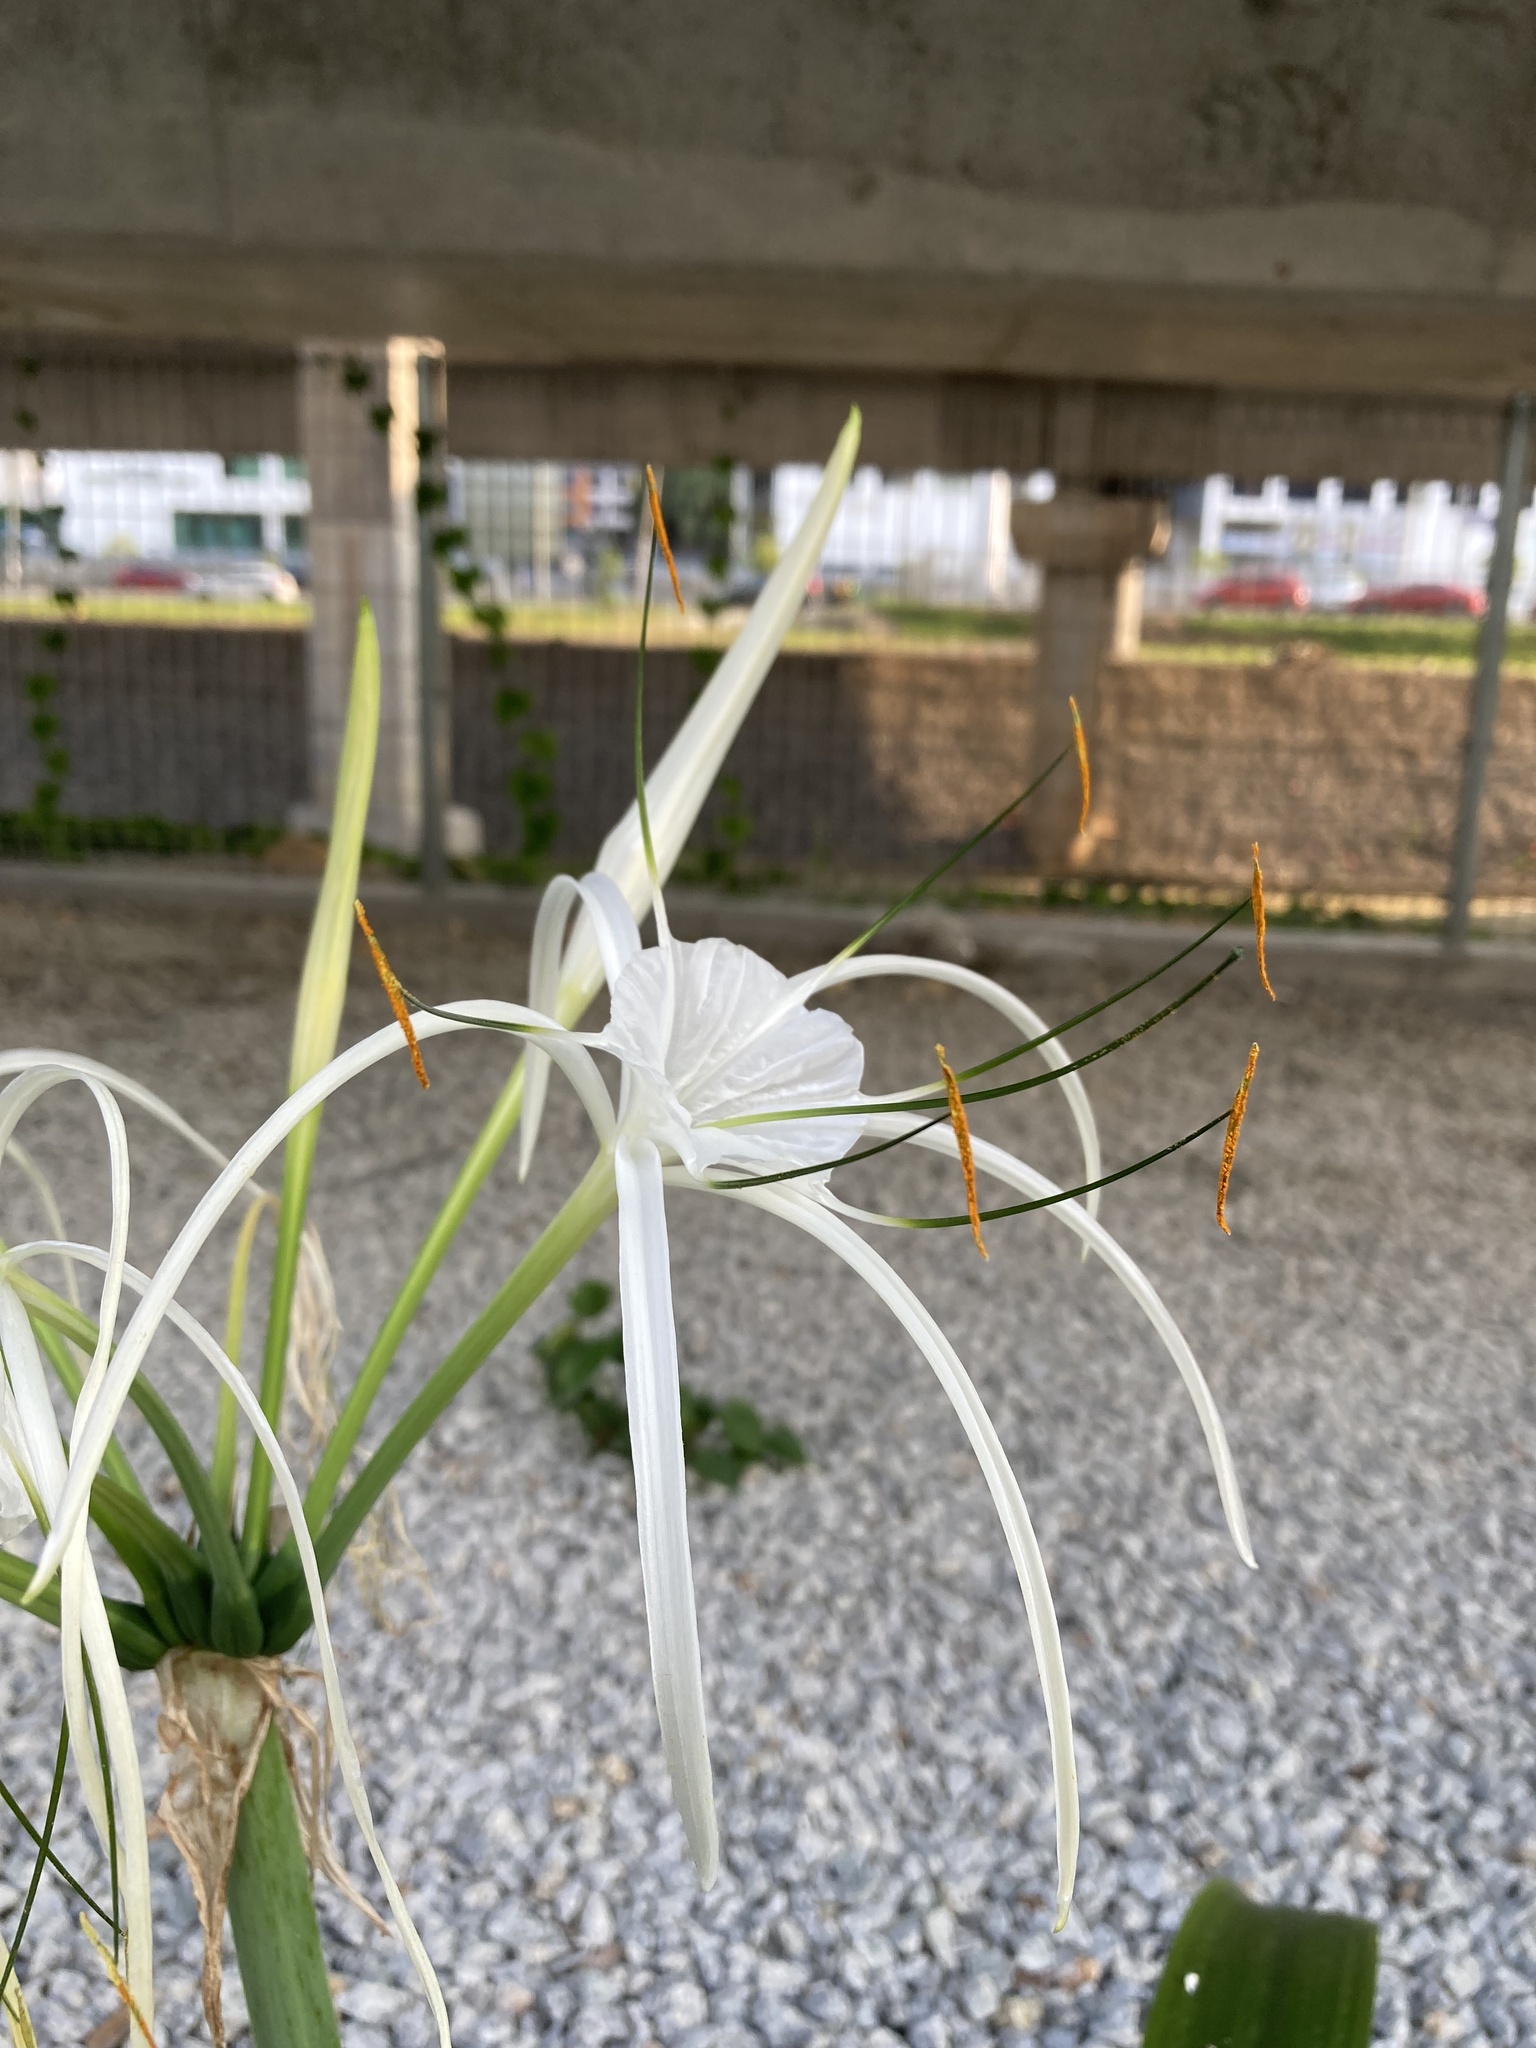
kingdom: Plantae
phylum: Tracheophyta
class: Liliopsida
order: Asparagales
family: Amaryllidaceae
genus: Hymenocallis
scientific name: Hymenocallis littoralis
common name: Beach spiderlily
